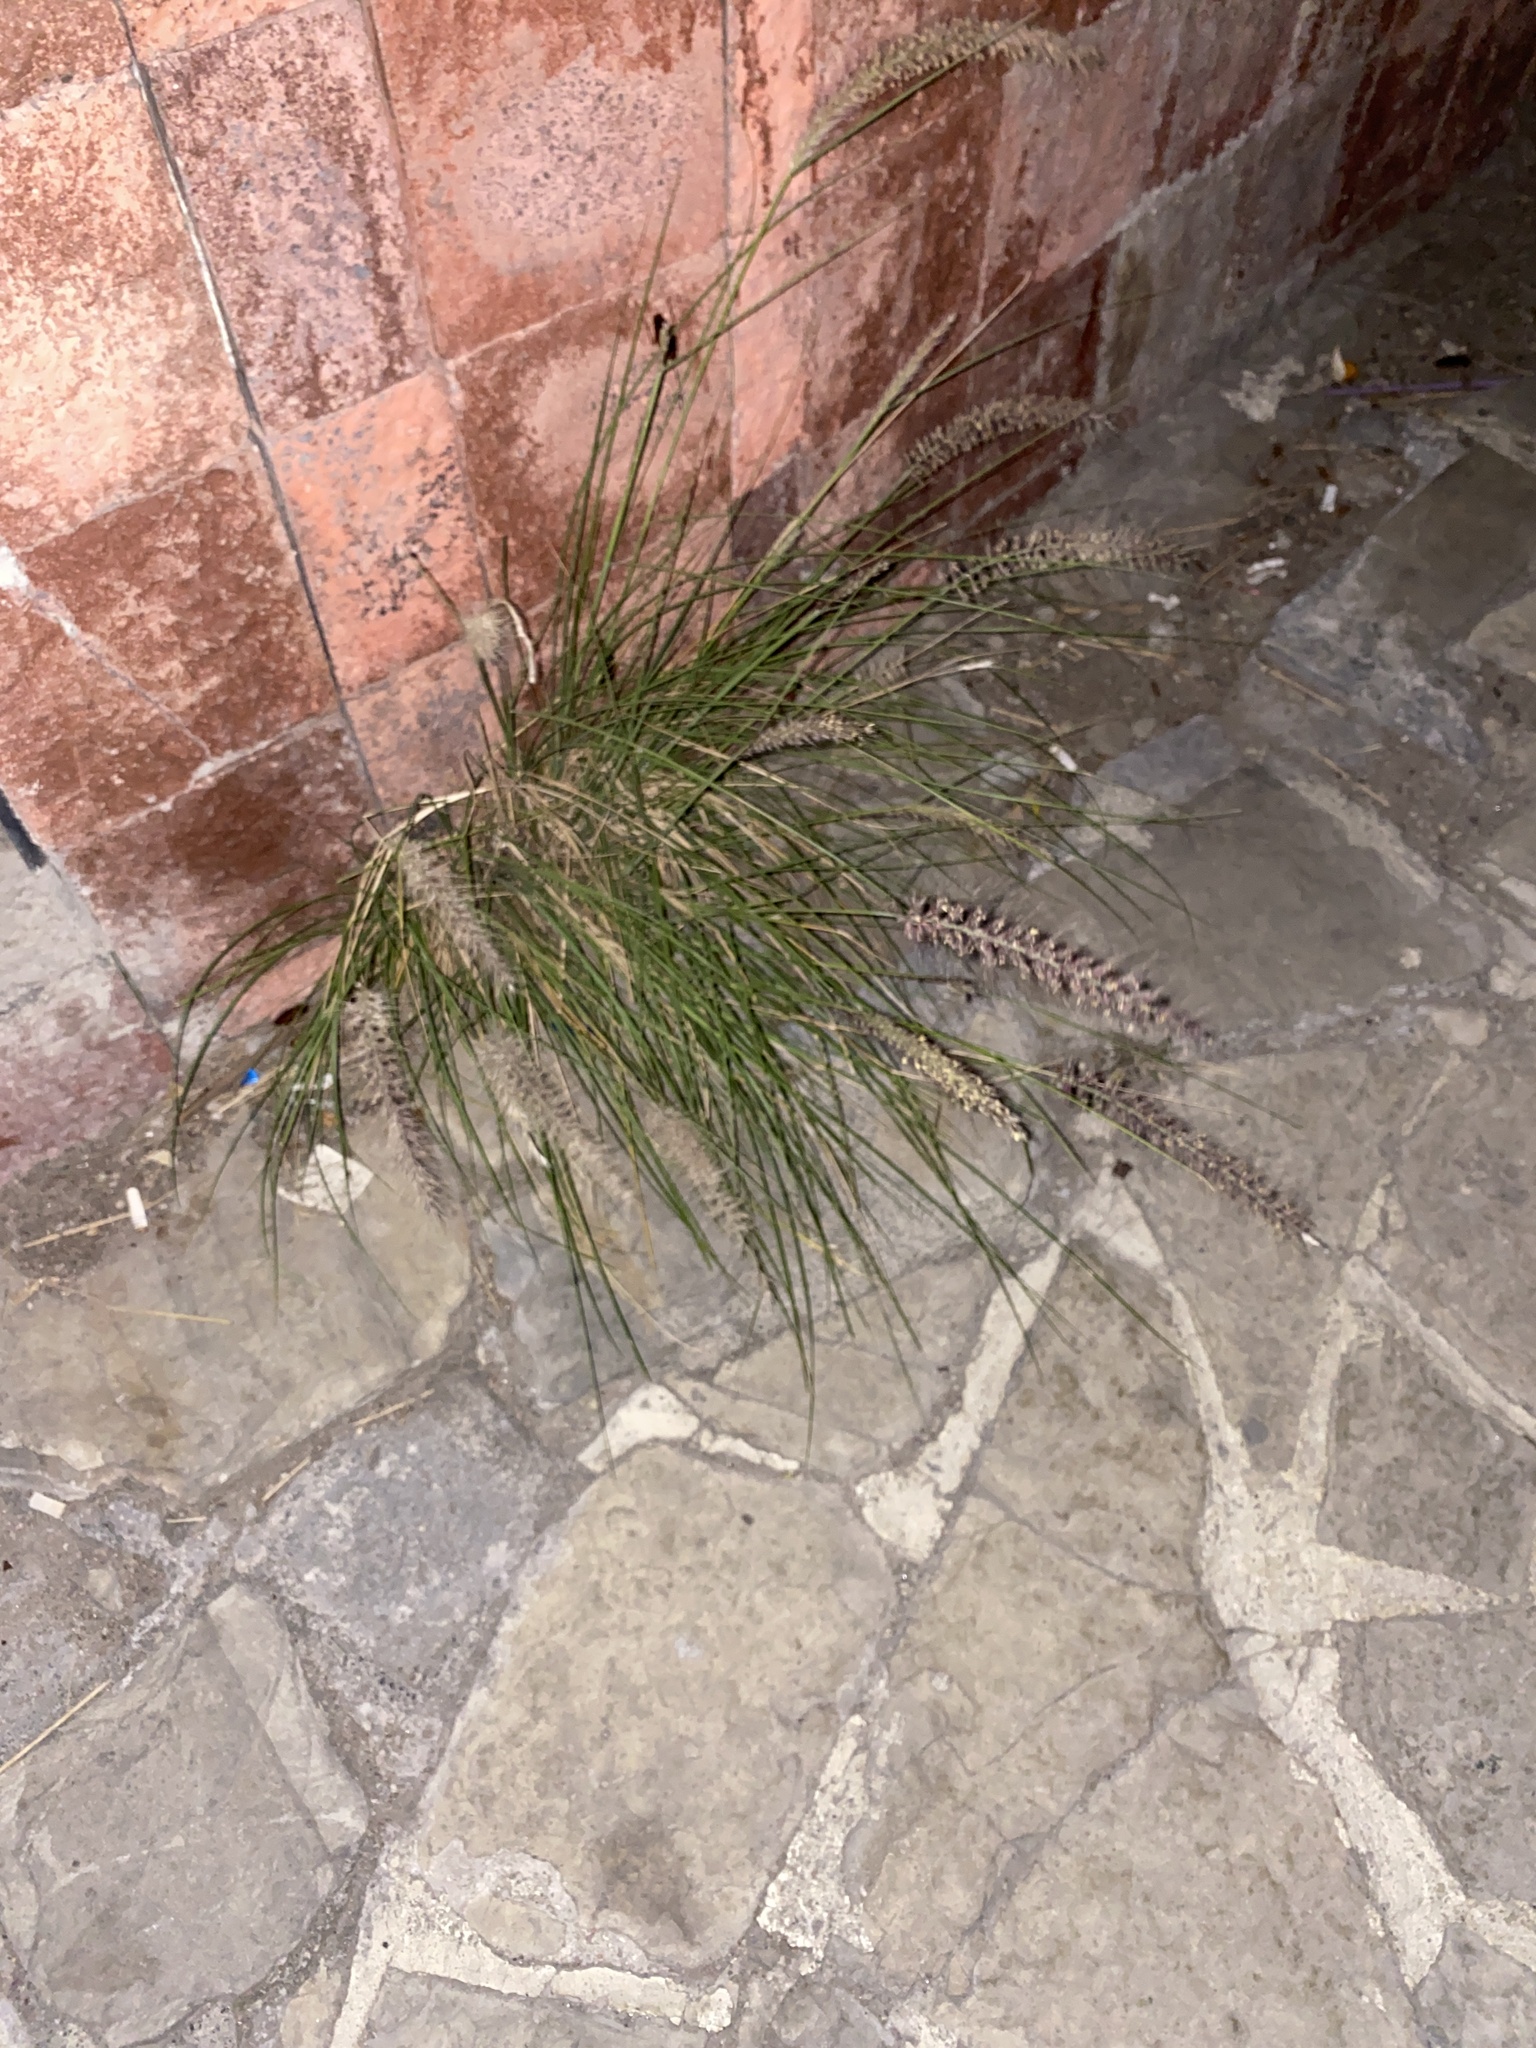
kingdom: Plantae
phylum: Tracheophyta
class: Liliopsida
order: Poales
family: Poaceae
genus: Cenchrus
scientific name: Cenchrus setaceus
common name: Crimson fountaingrass
